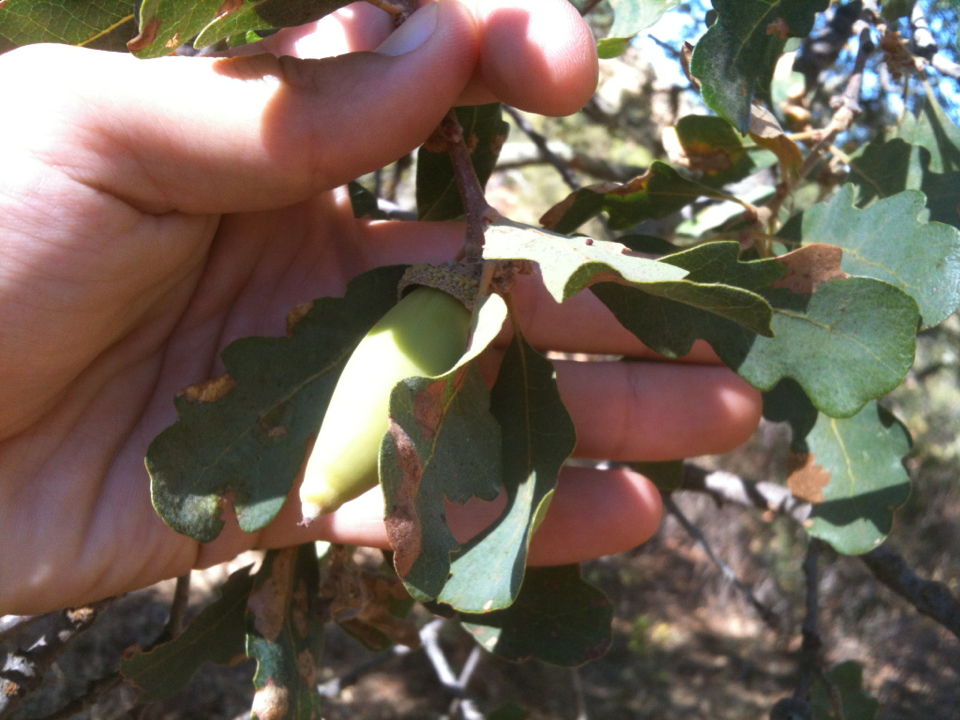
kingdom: Plantae
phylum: Tracheophyta
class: Magnoliopsida
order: Fagales
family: Fagaceae
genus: Quercus
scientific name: Quercus douglasii
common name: Blue oak
